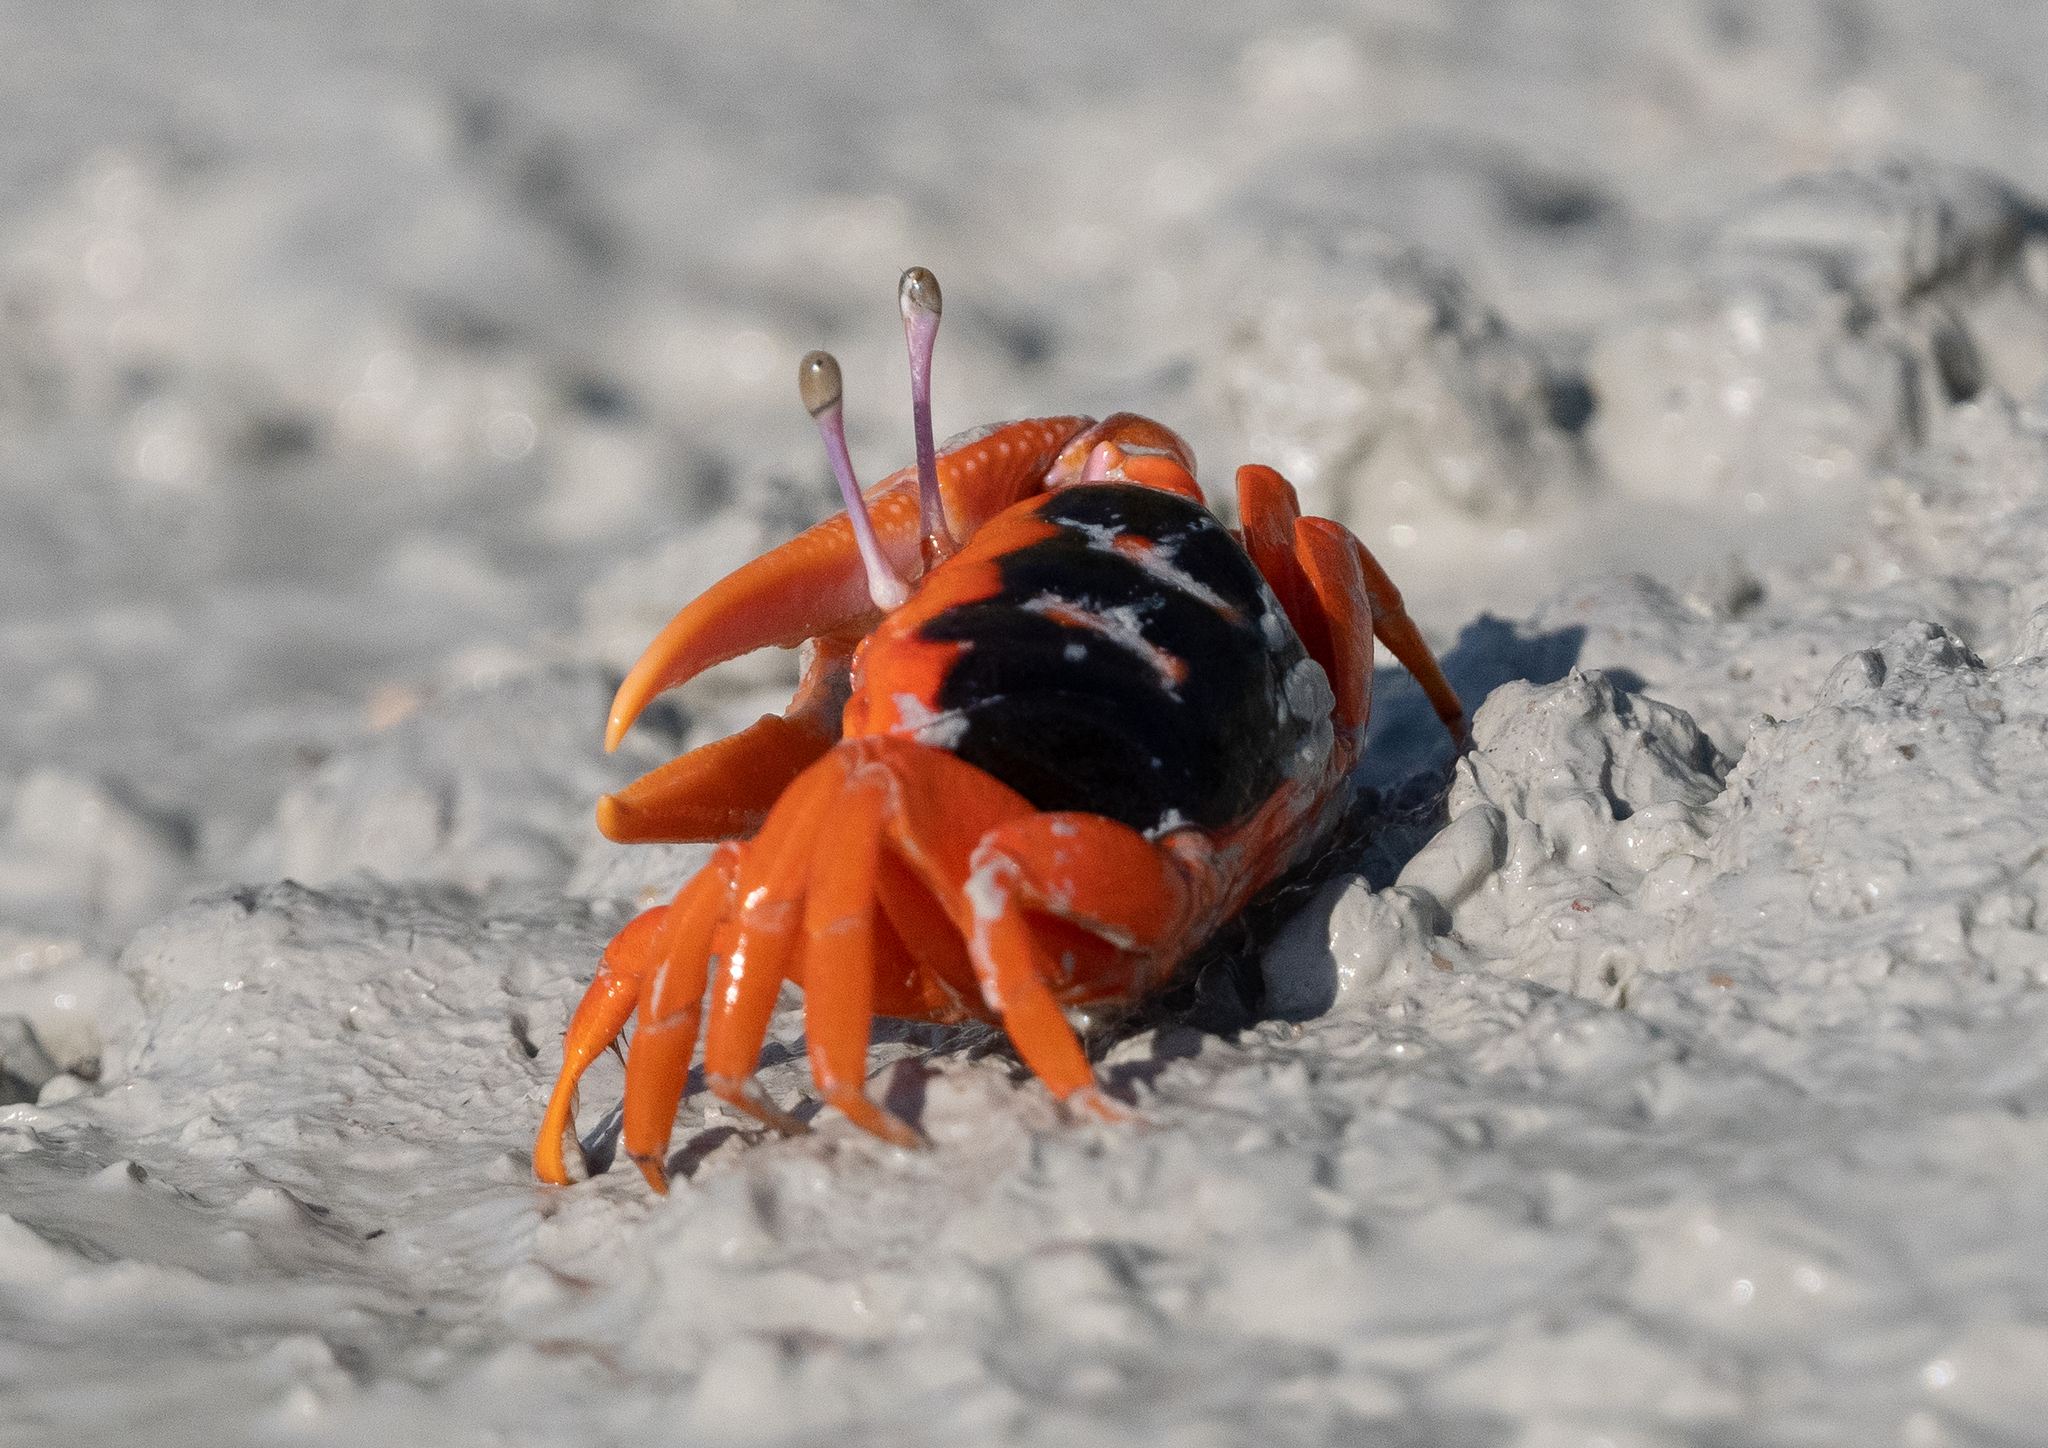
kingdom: Animalia
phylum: Arthropoda
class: Malacostraca
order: Decapoda
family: Ocypodidae
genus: Tubuca
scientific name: Tubuca flammula
